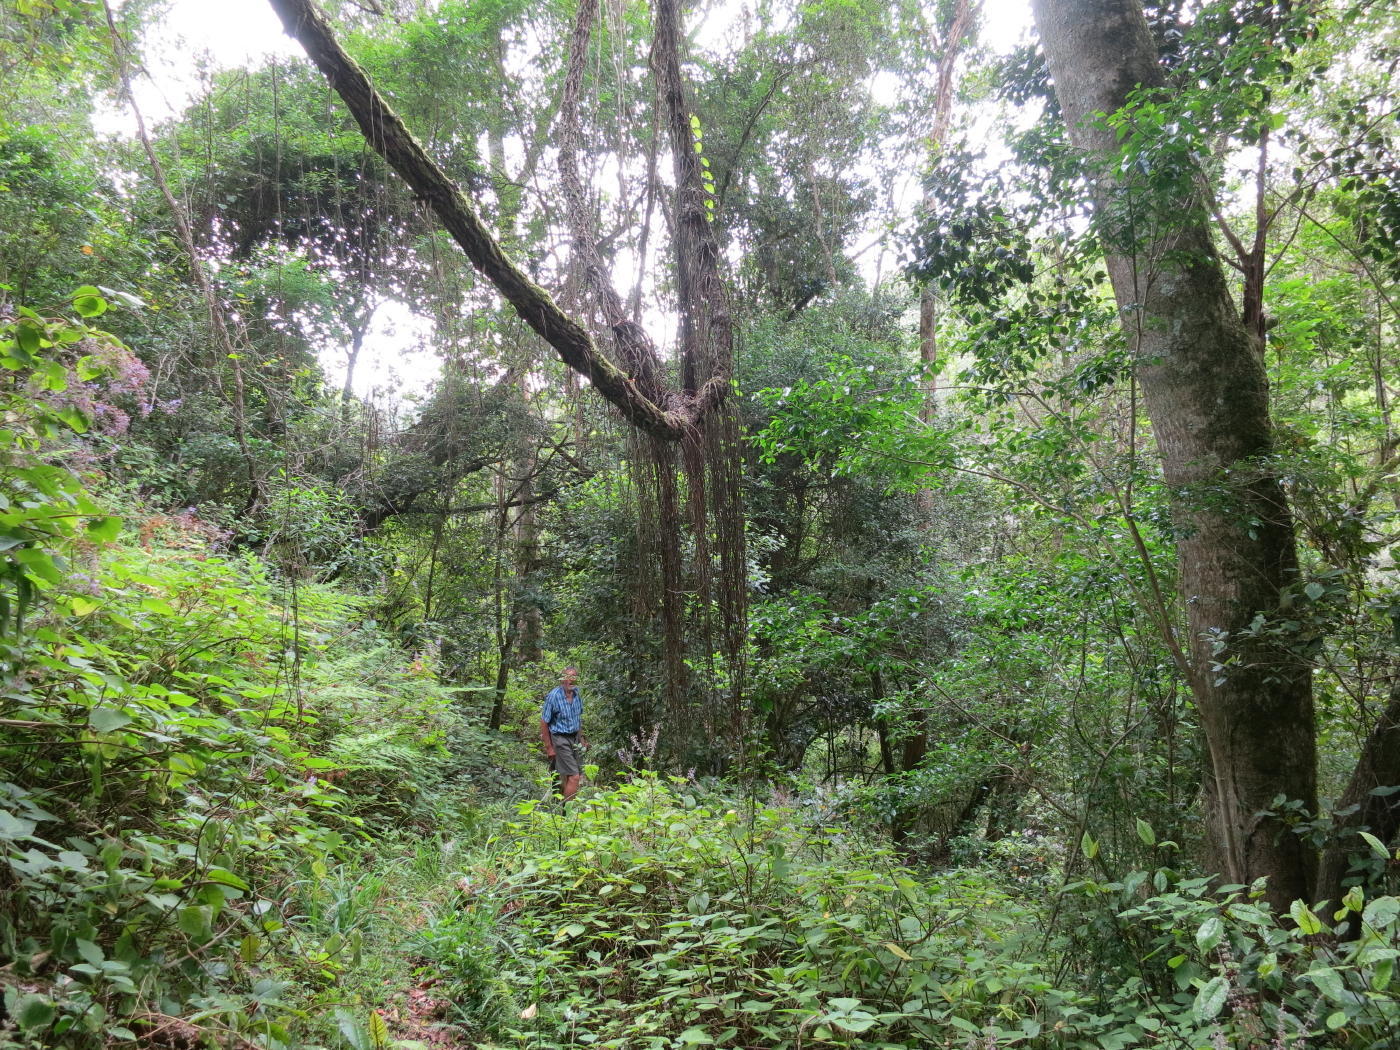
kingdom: Plantae
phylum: Tracheophyta
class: Magnoliopsida
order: Vitales
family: Vitaceae
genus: Rhoicissus
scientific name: Rhoicissus tomentosa
